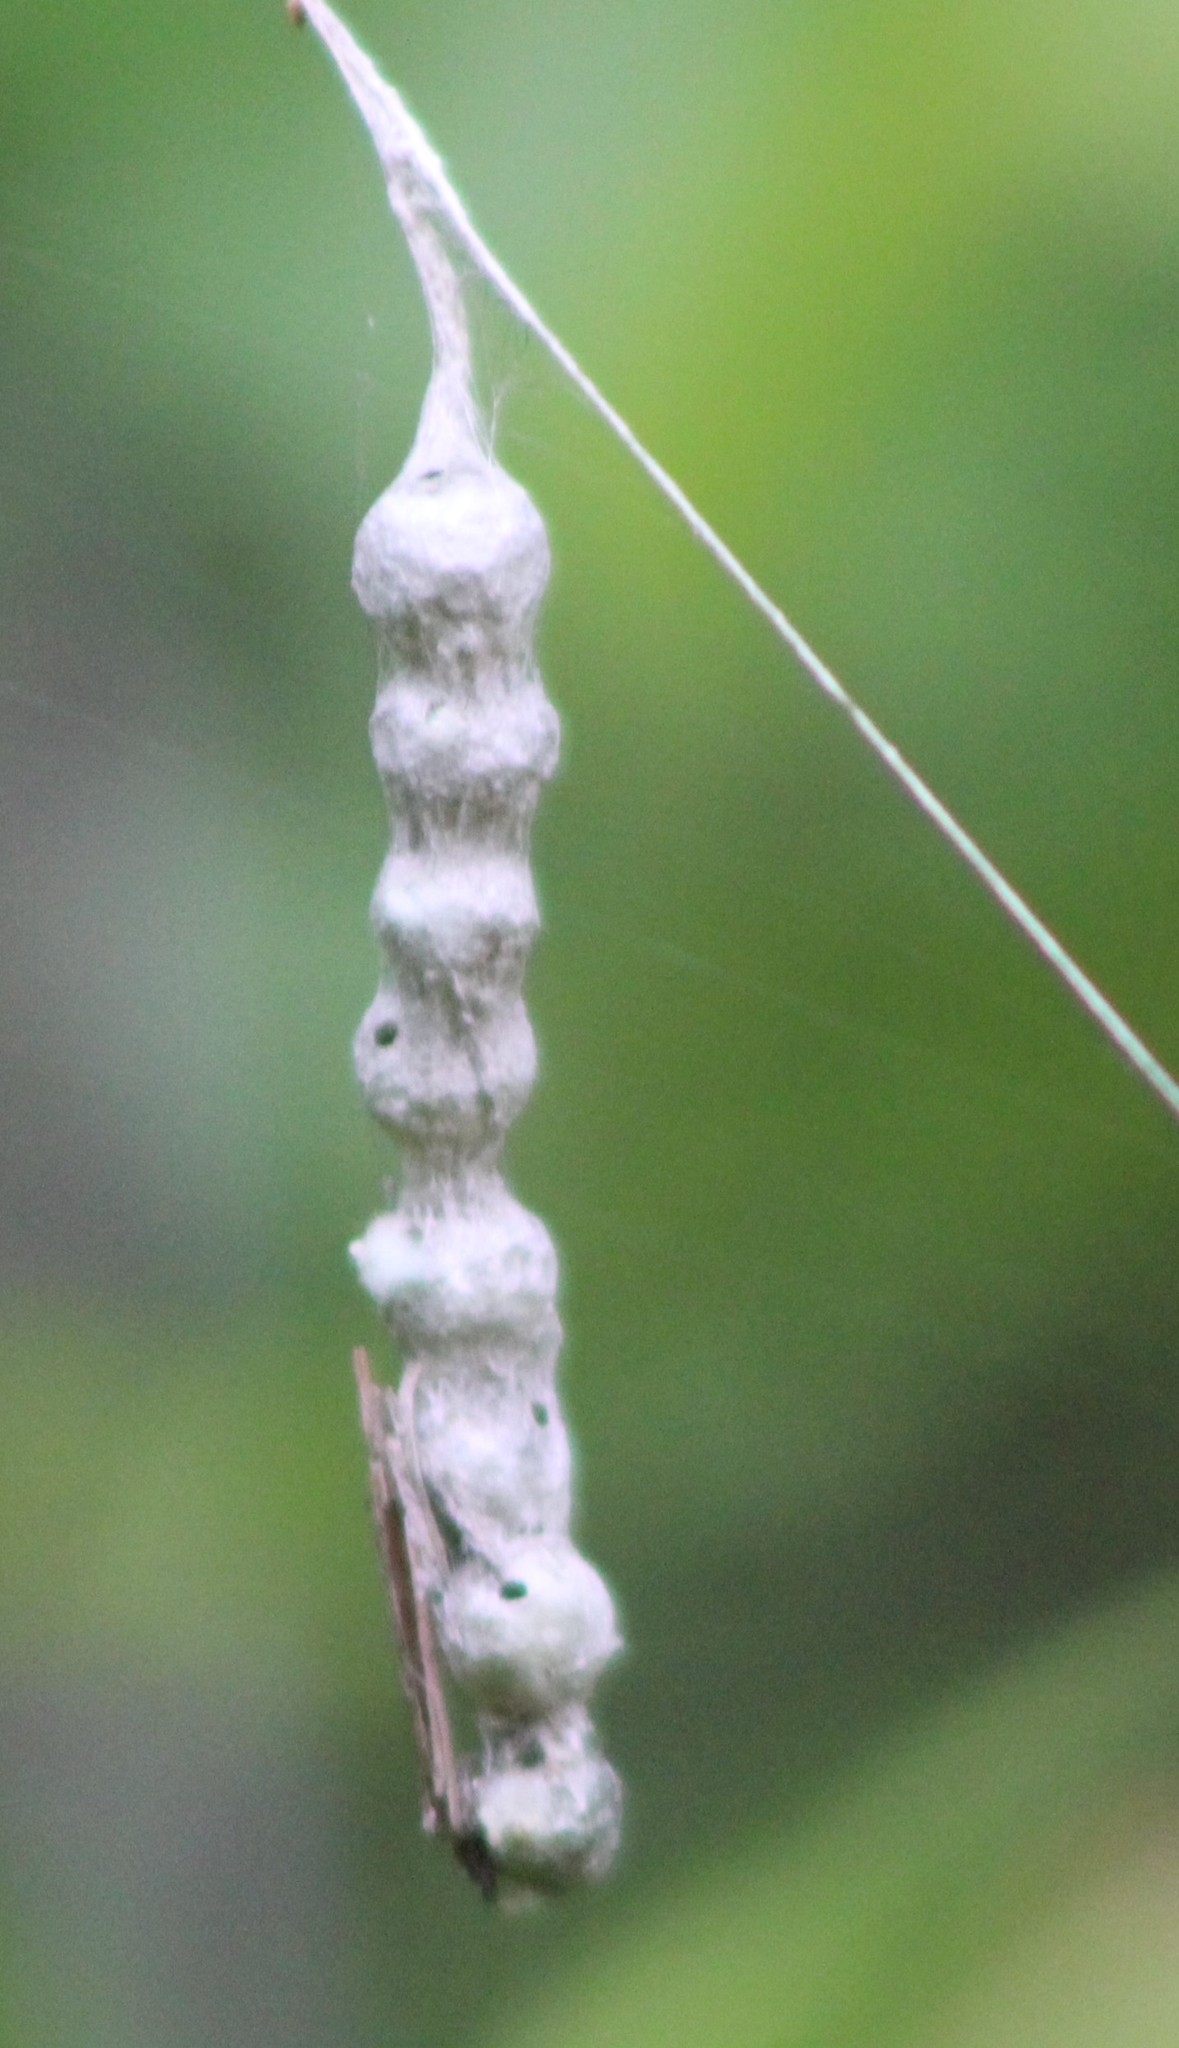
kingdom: Animalia
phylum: Arthropoda
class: Arachnida
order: Araneae
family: Araneidae
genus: Mecynogea
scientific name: Mecynogea lemniscata
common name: Orb weavers
